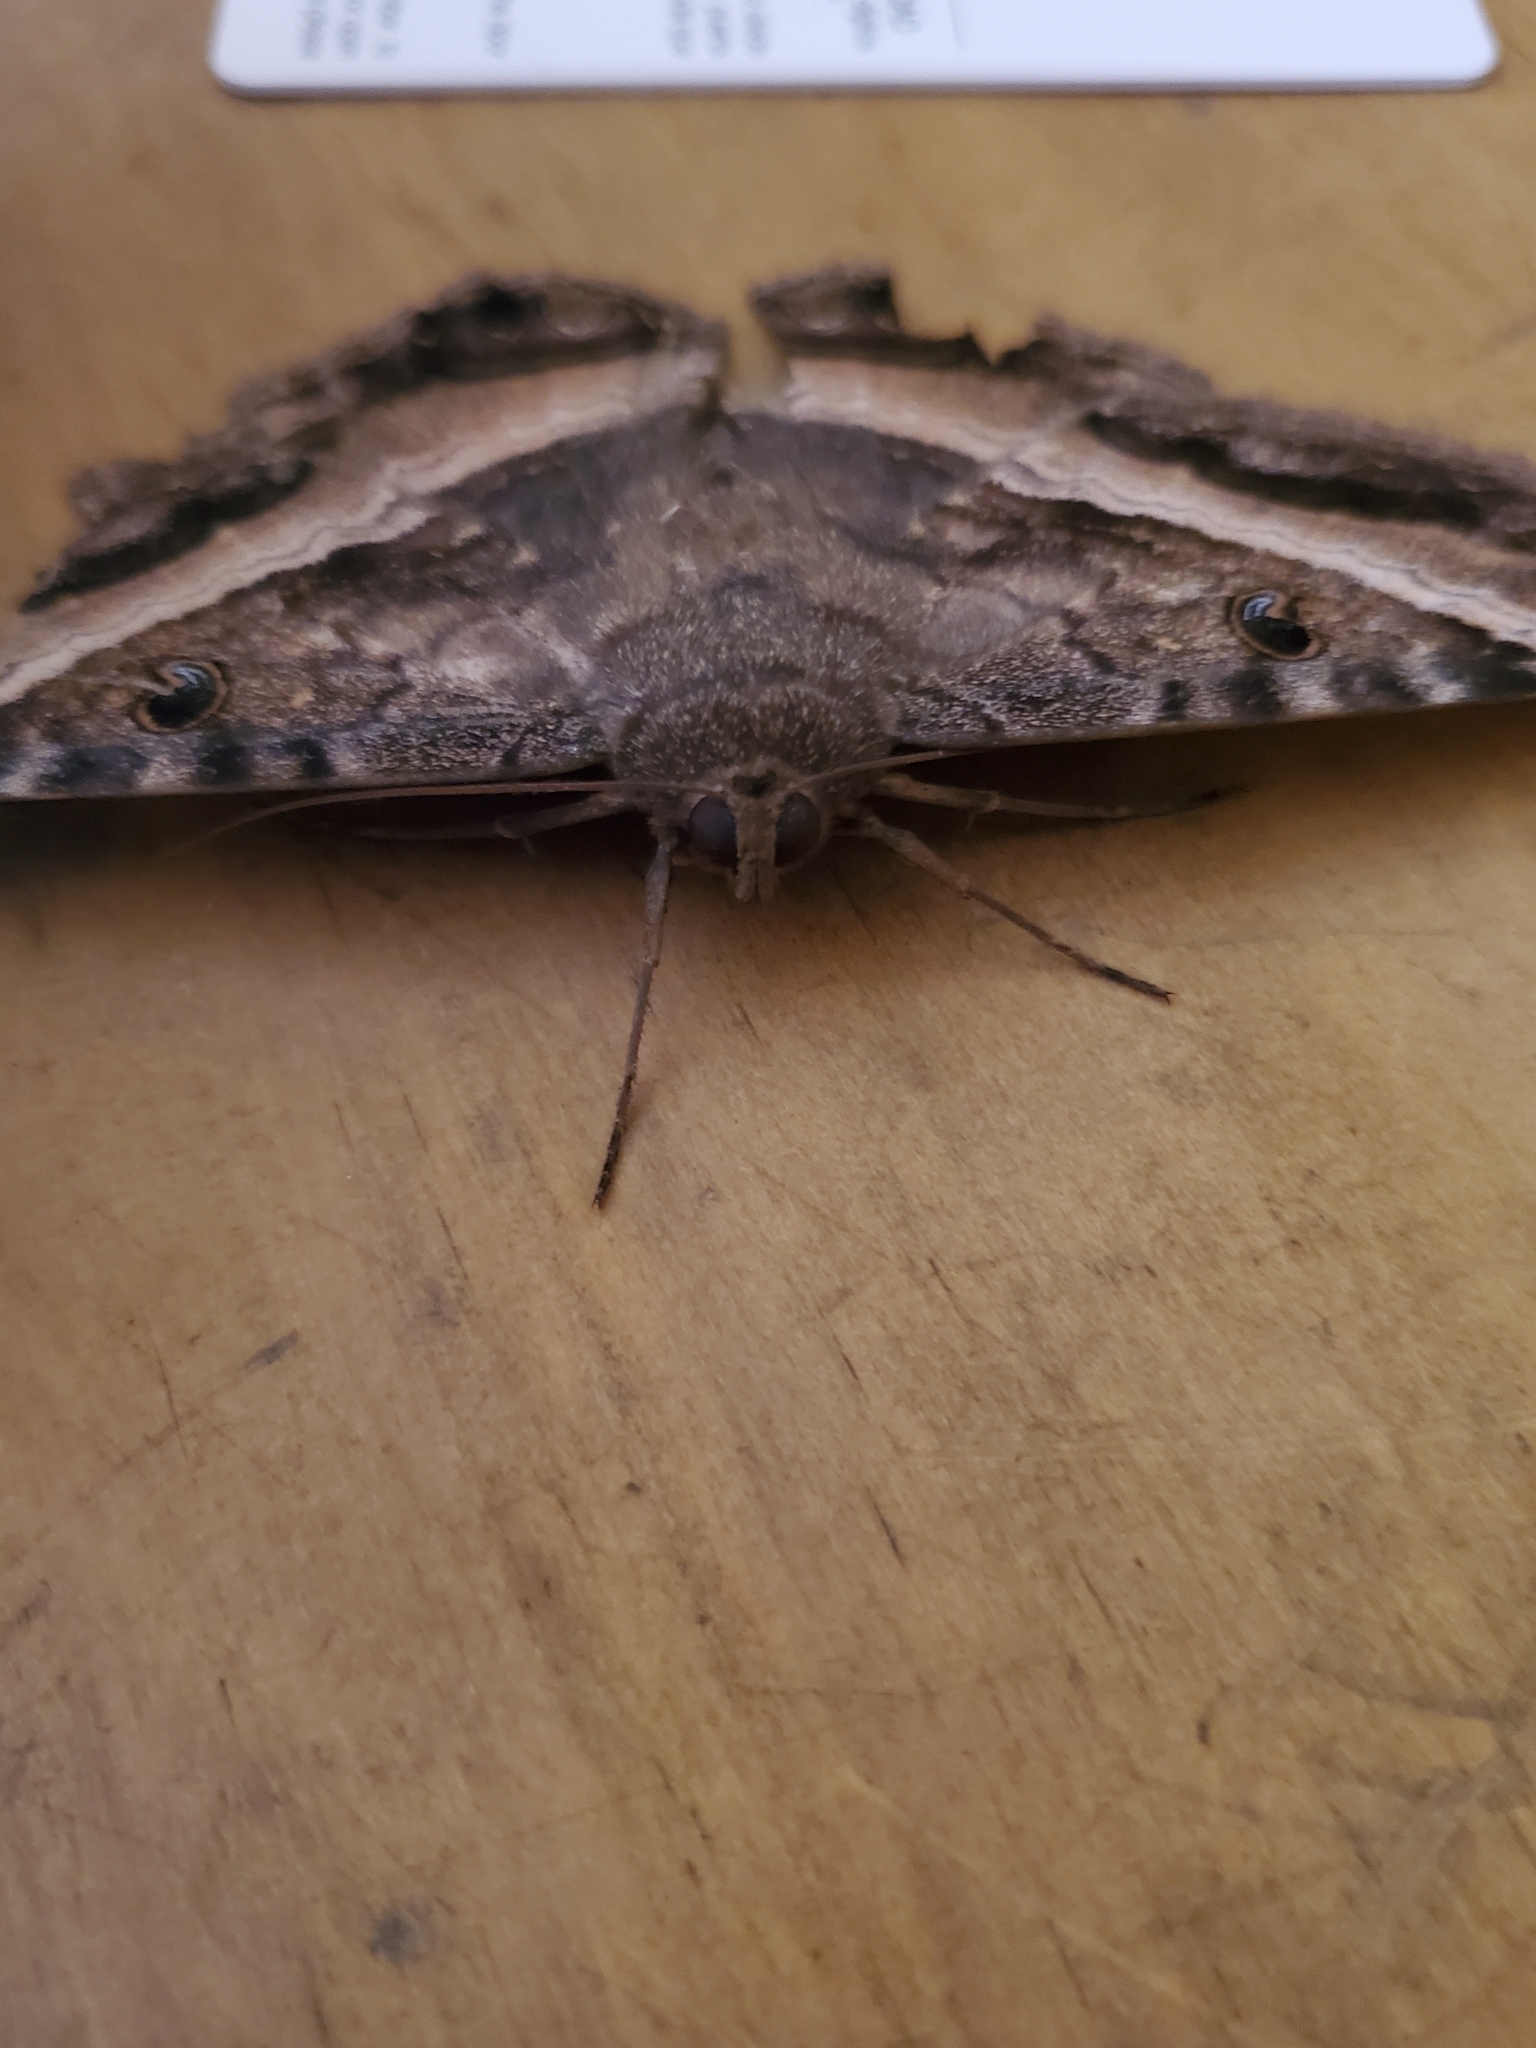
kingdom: Animalia
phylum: Arthropoda
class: Insecta
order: Lepidoptera
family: Erebidae
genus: Ascalapha
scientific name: Ascalapha odorata
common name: Black witch
